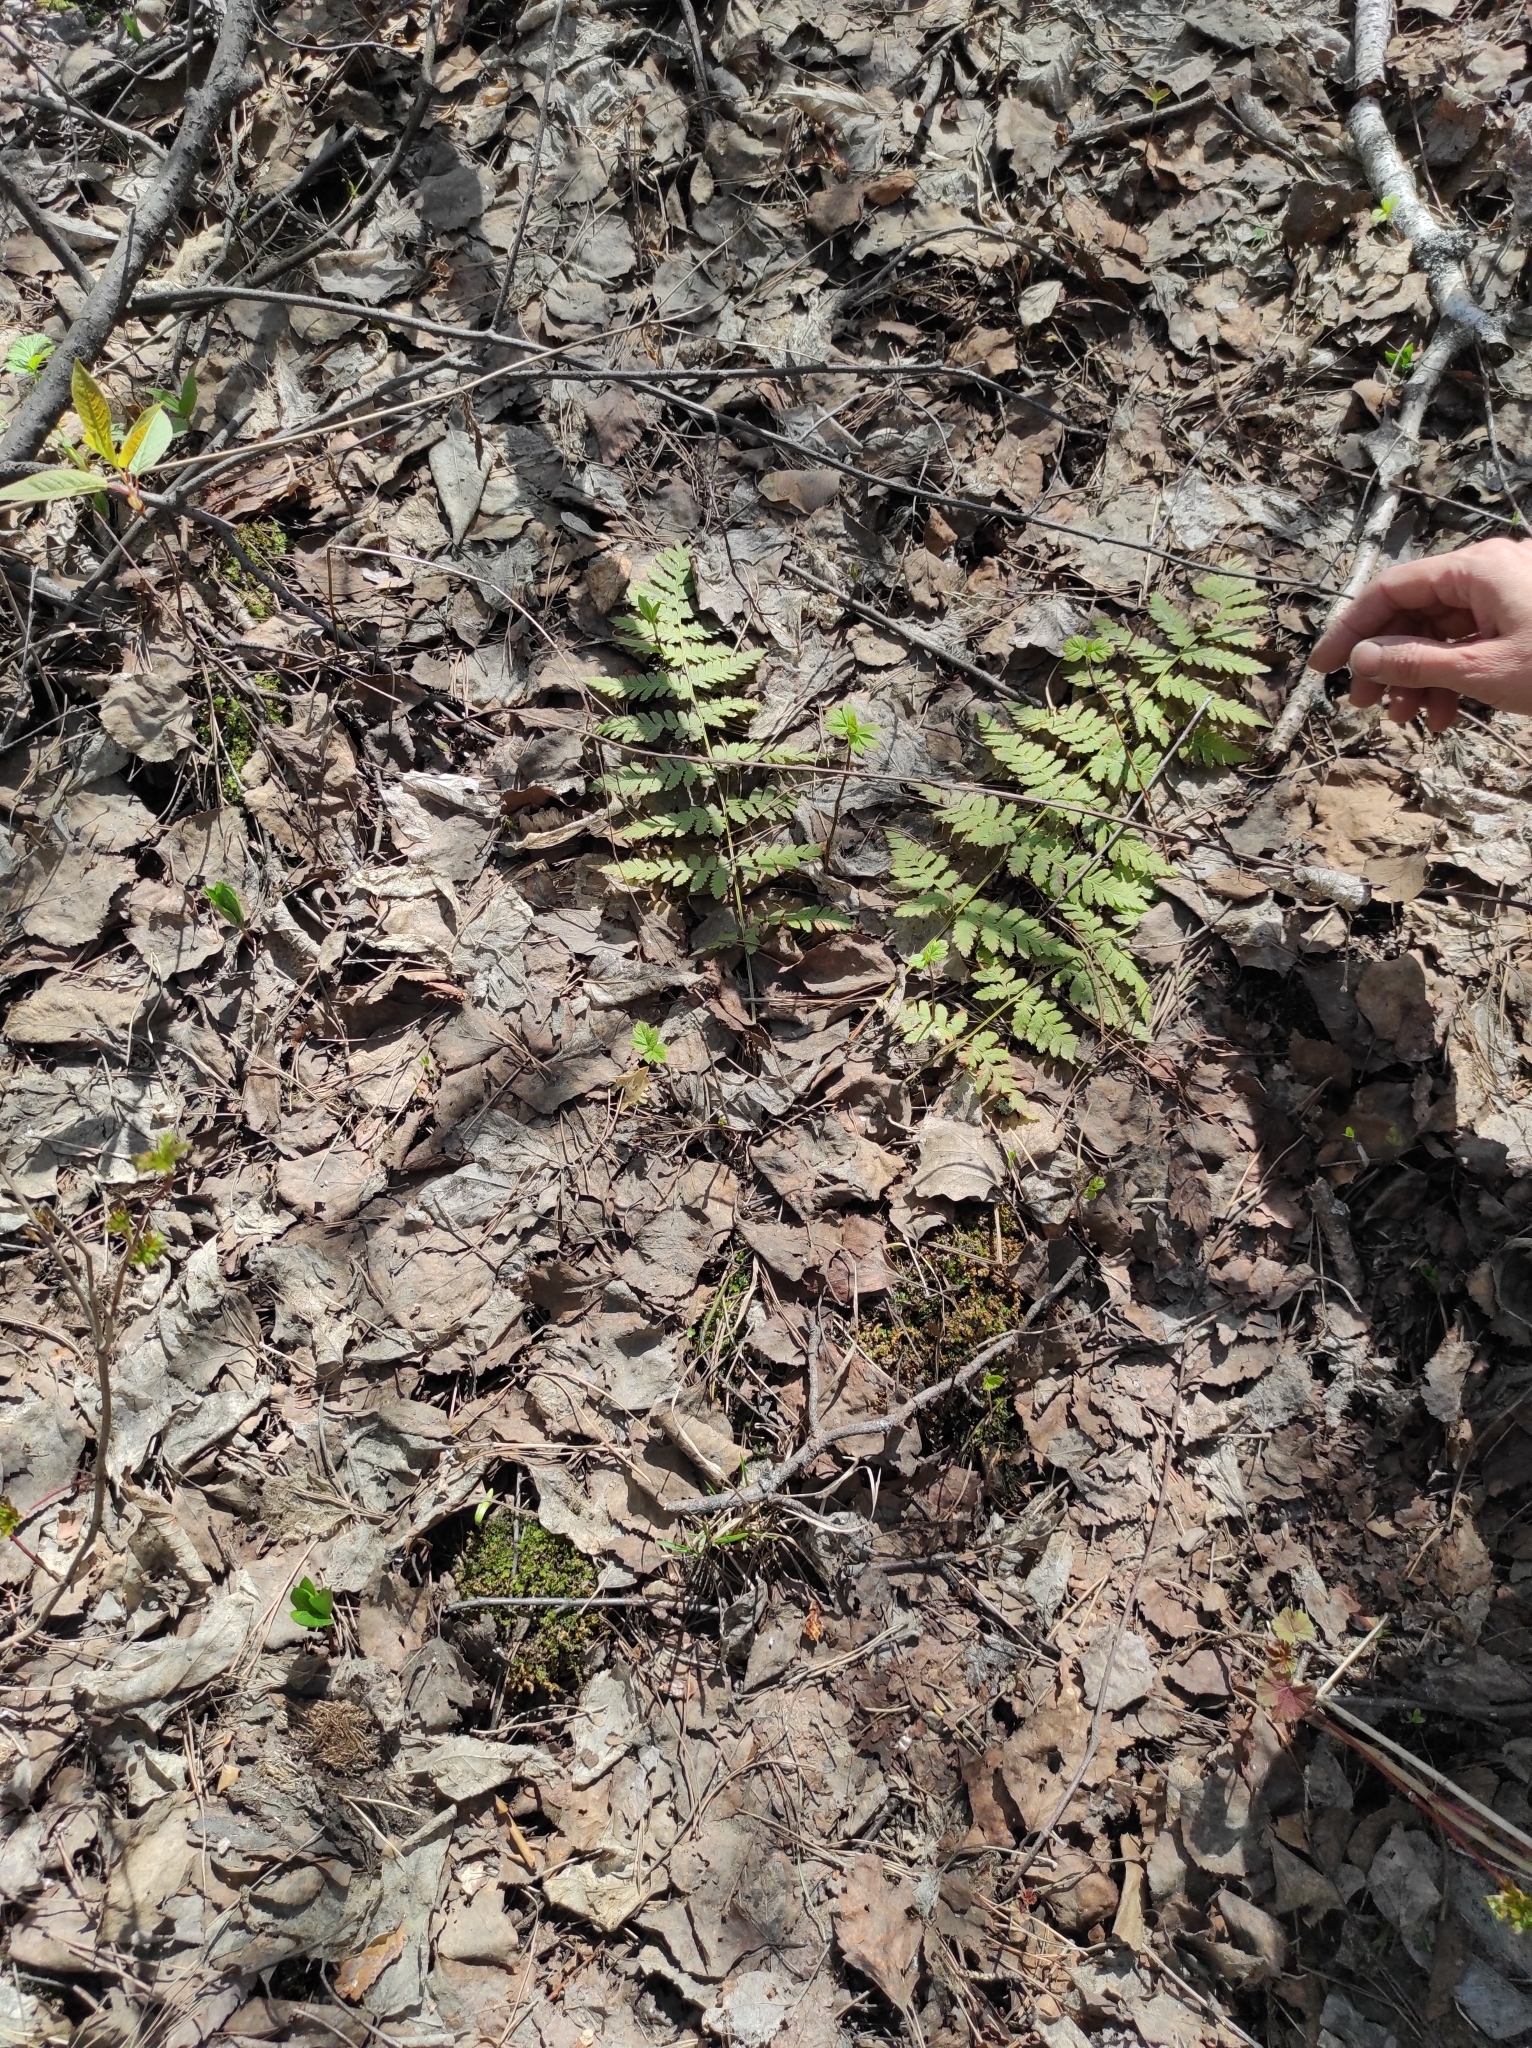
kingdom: Plantae
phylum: Tracheophyta
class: Polypodiopsida
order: Polypodiales
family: Dryopteridaceae
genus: Dryopteris
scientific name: Dryopteris carthusiana
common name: Narrow buckler-fern
